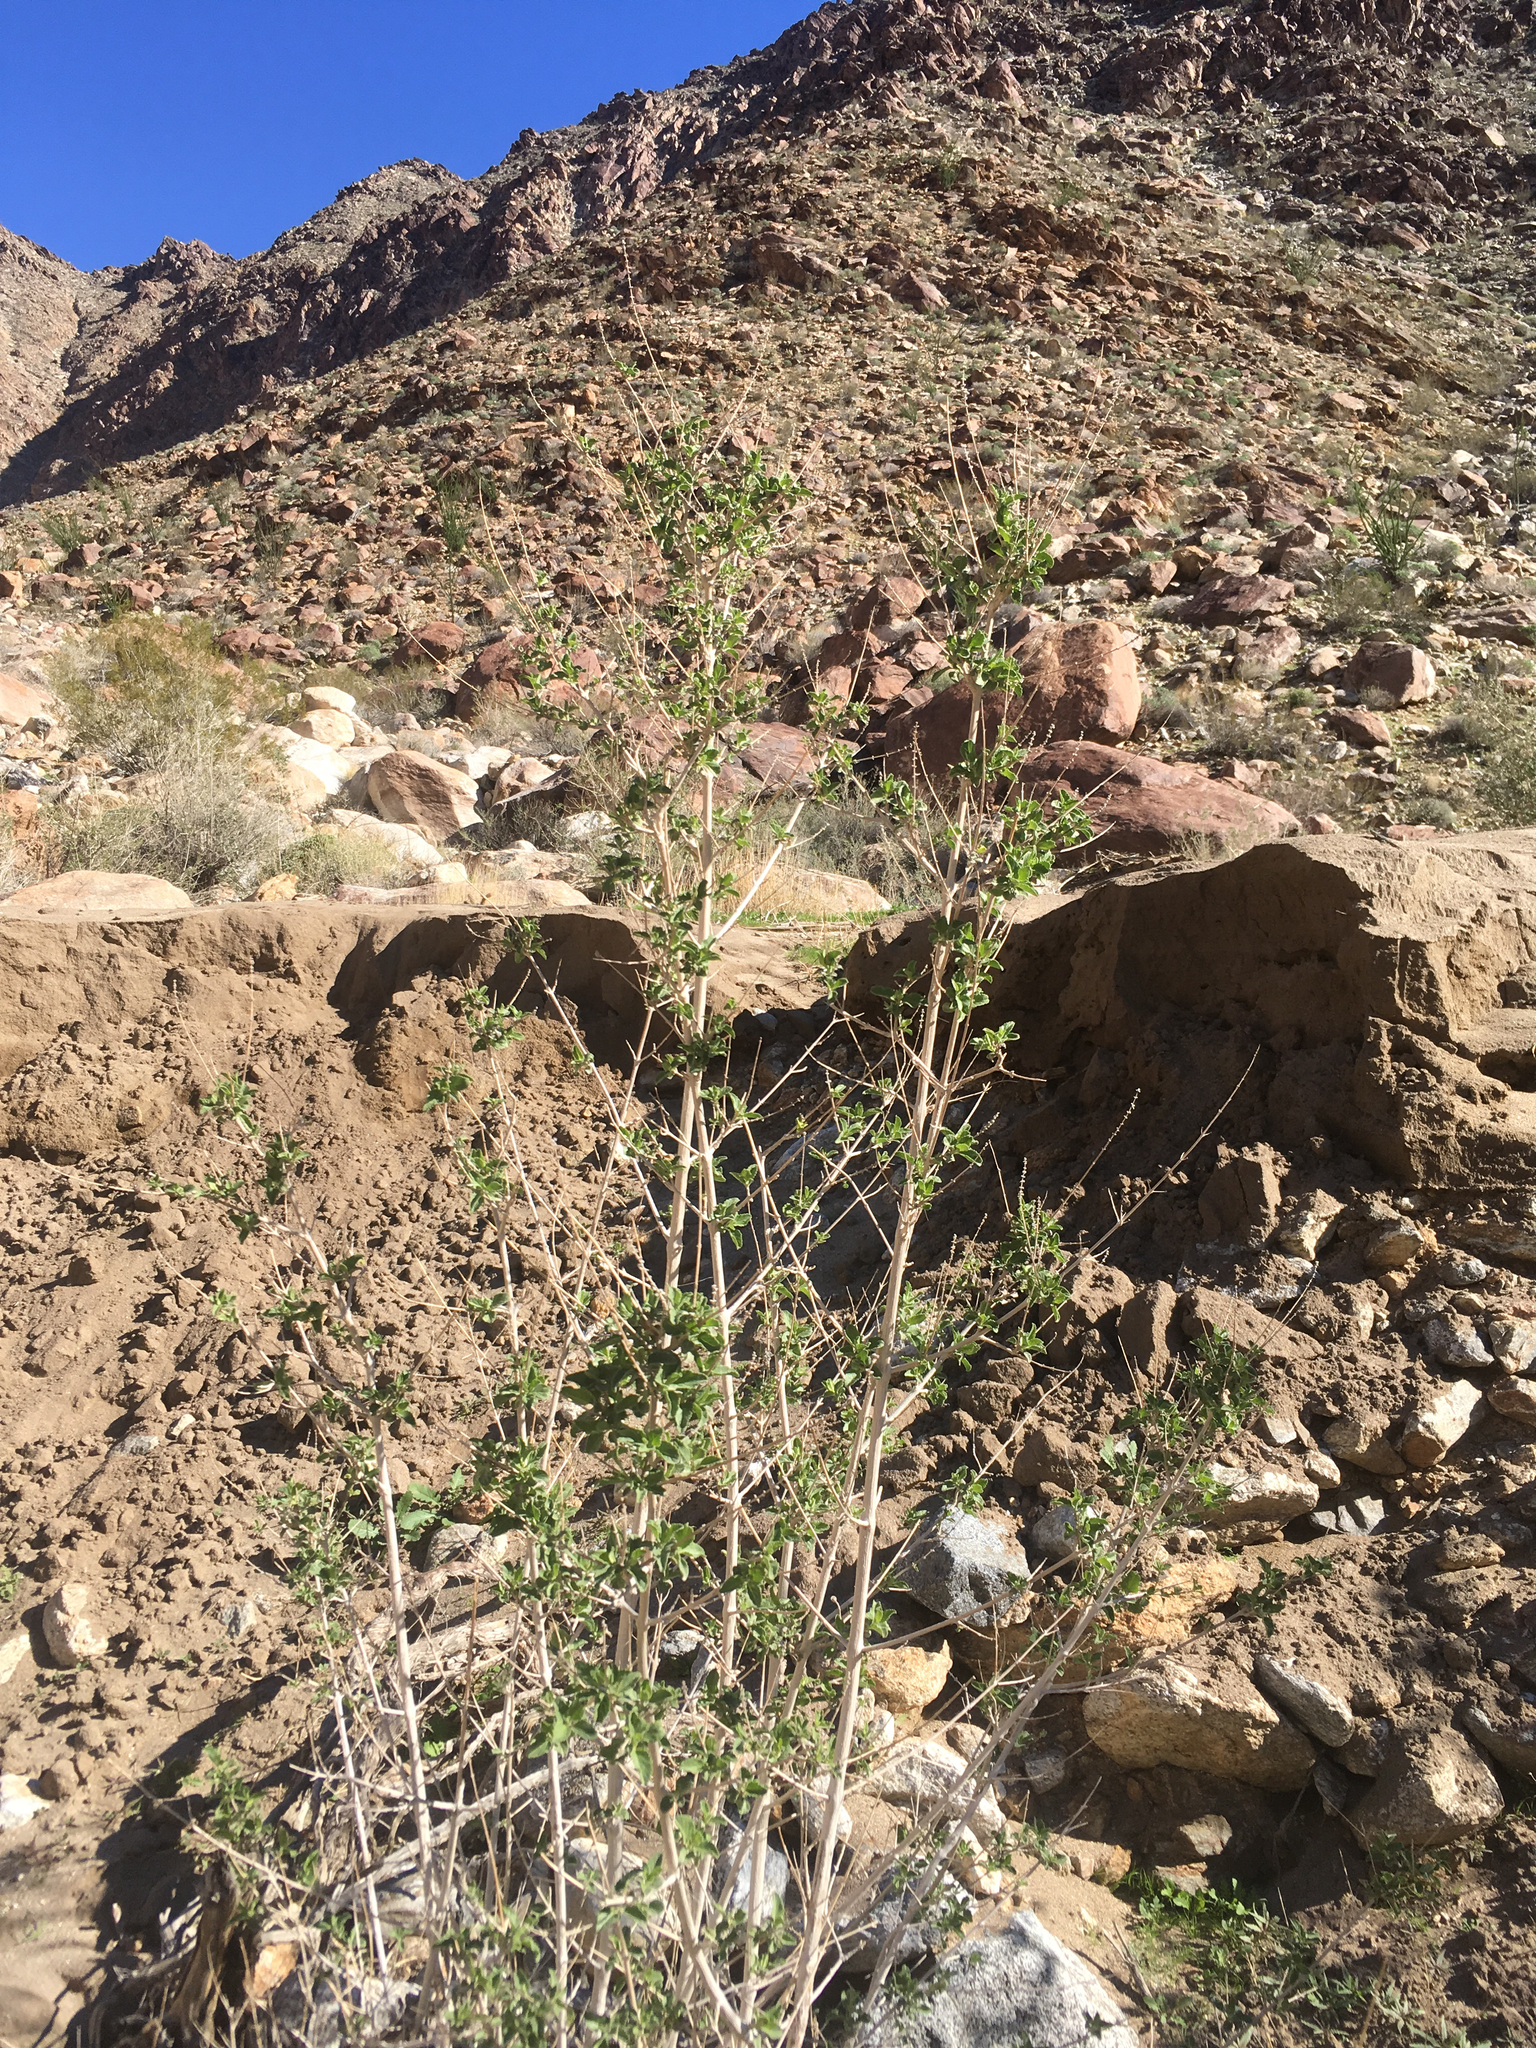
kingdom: Plantae
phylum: Tracheophyta
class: Magnoliopsida
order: Lamiales
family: Lamiaceae
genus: Condea
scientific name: Condea emoryi
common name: Chia
